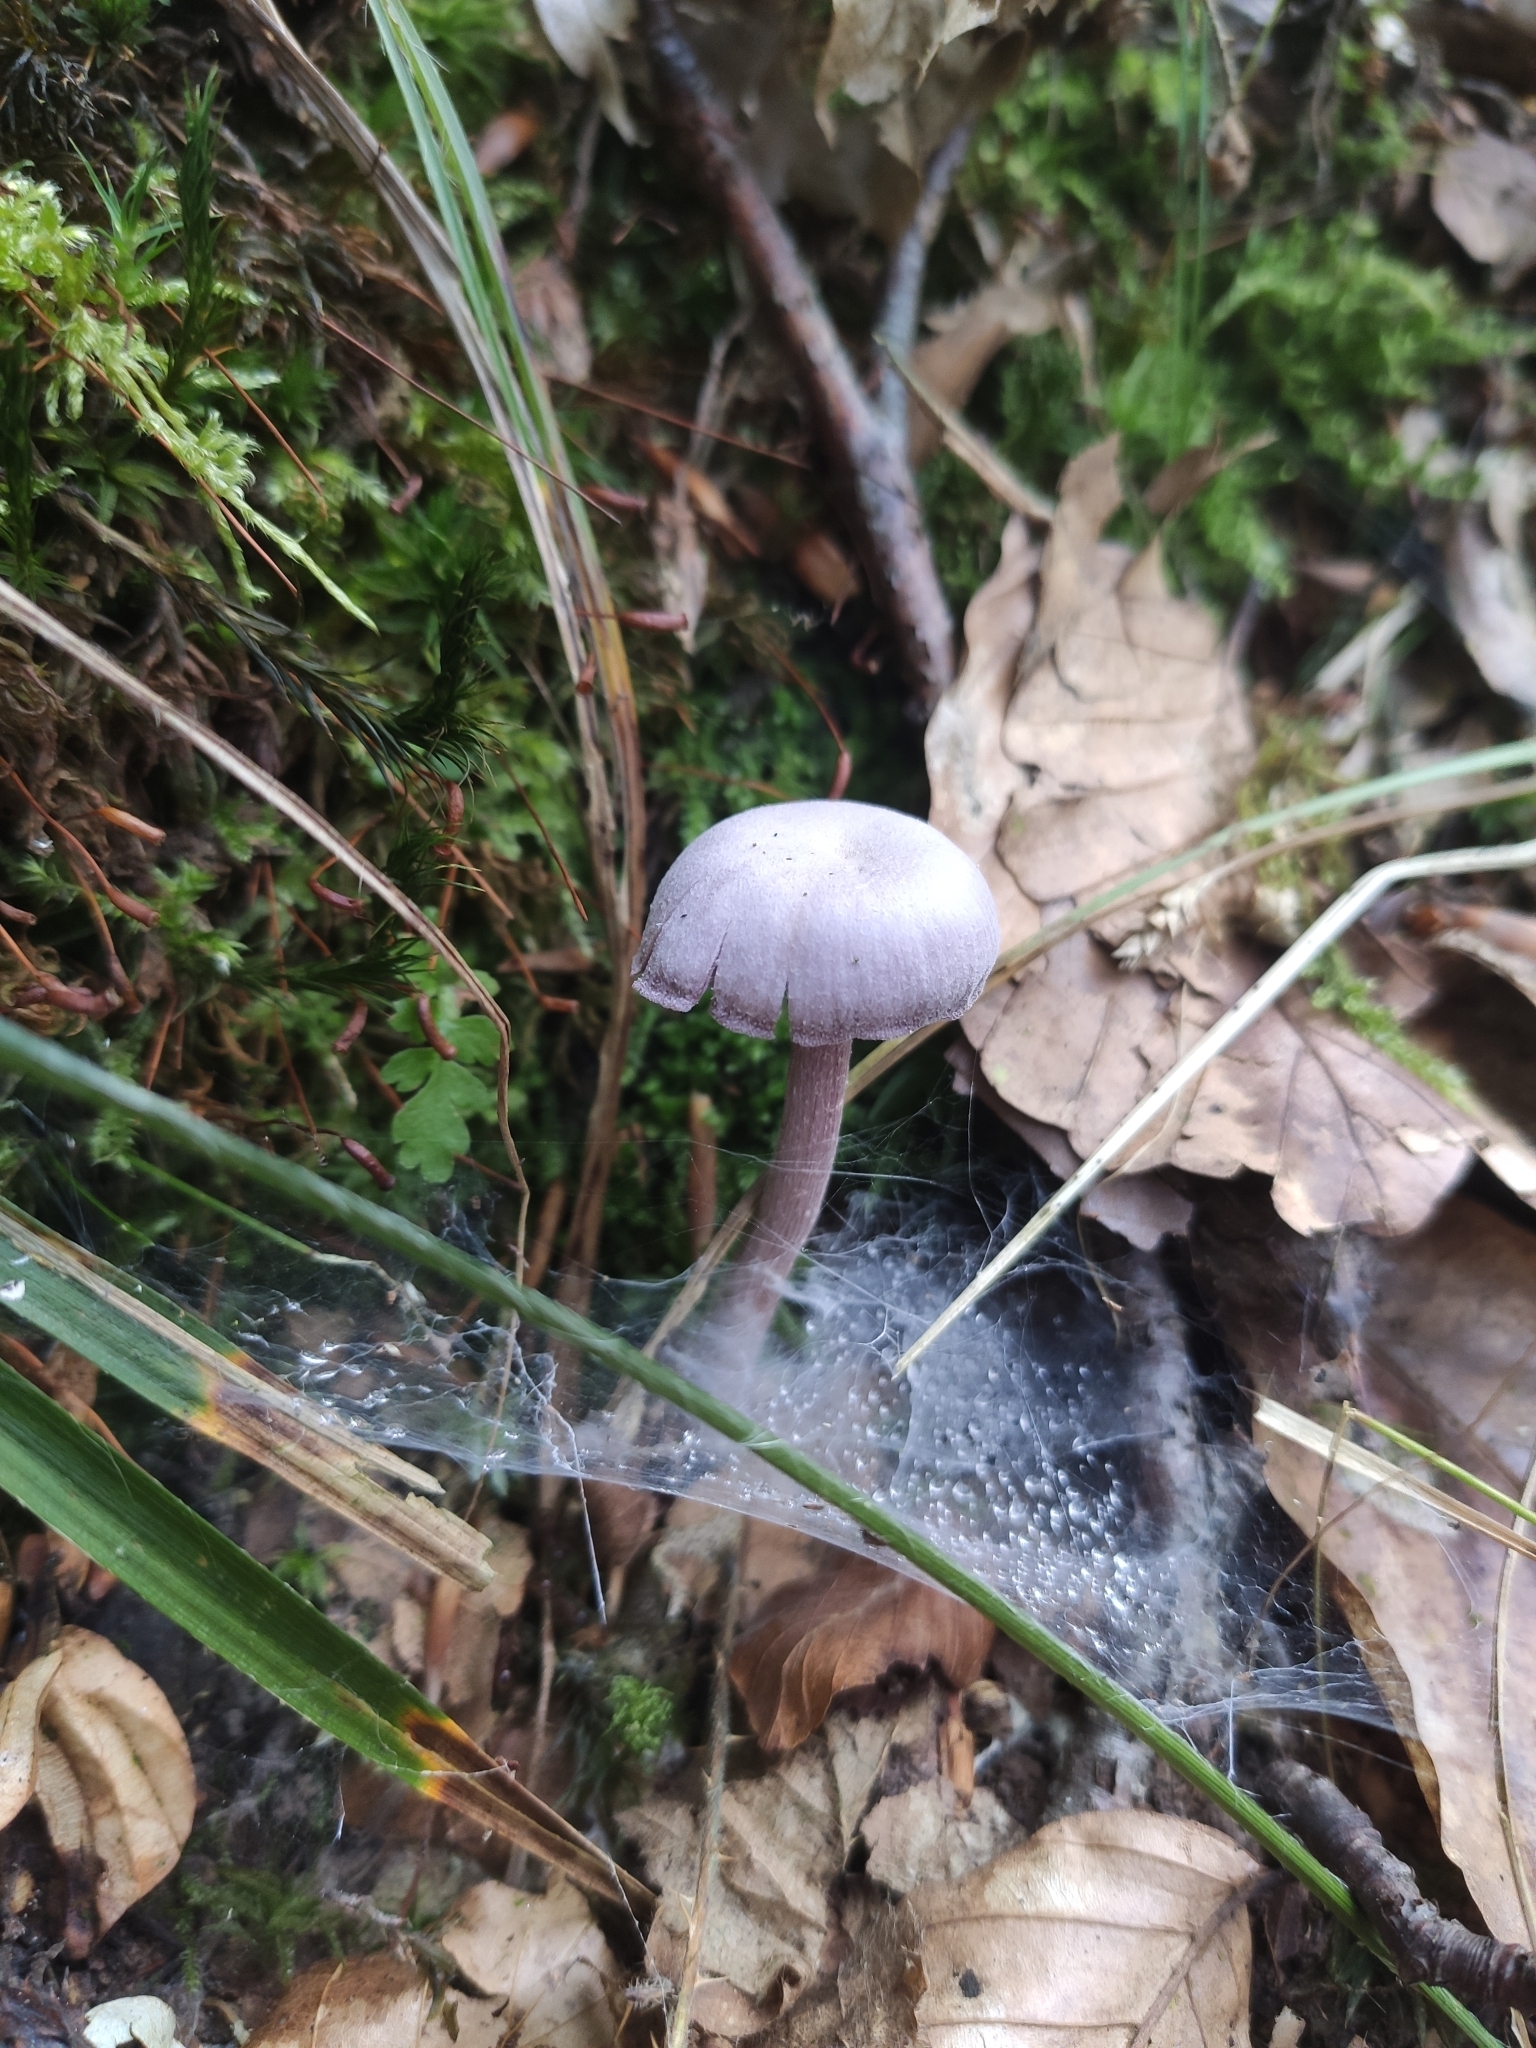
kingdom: Fungi
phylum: Basidiomycota
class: Agaricomycetes
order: Agaricales
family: Hydnangiaceae
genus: Laccaria
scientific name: Laccaria amethystina
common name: Amethyst deceiver
